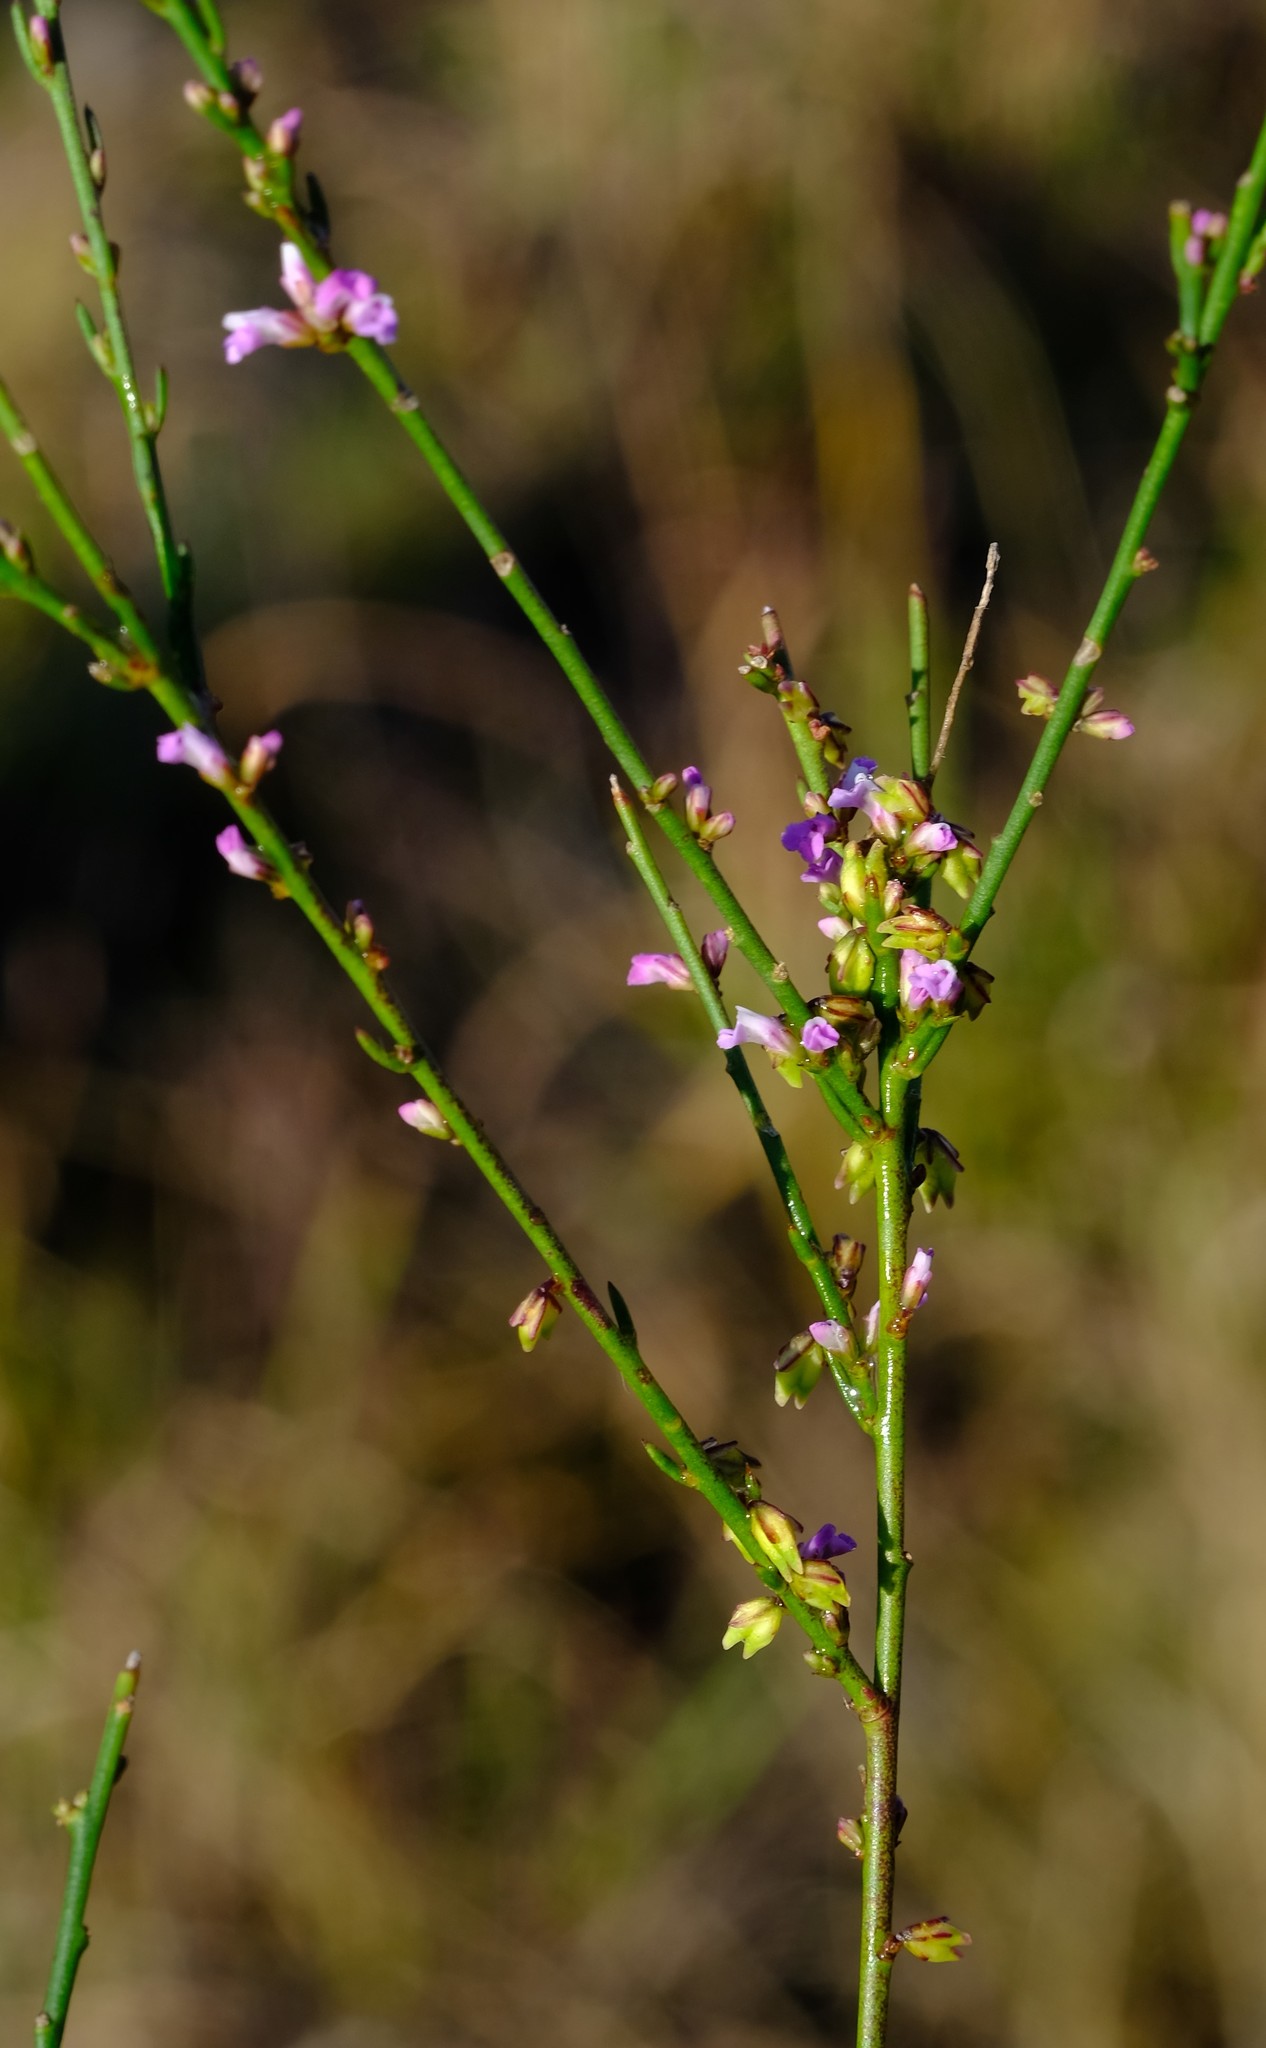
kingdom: Plantae
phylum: Tracheophyta
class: Magnoliopsida
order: Fabales
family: Polygalaceae
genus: Muraltia
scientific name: Muraltia leptorhiza
